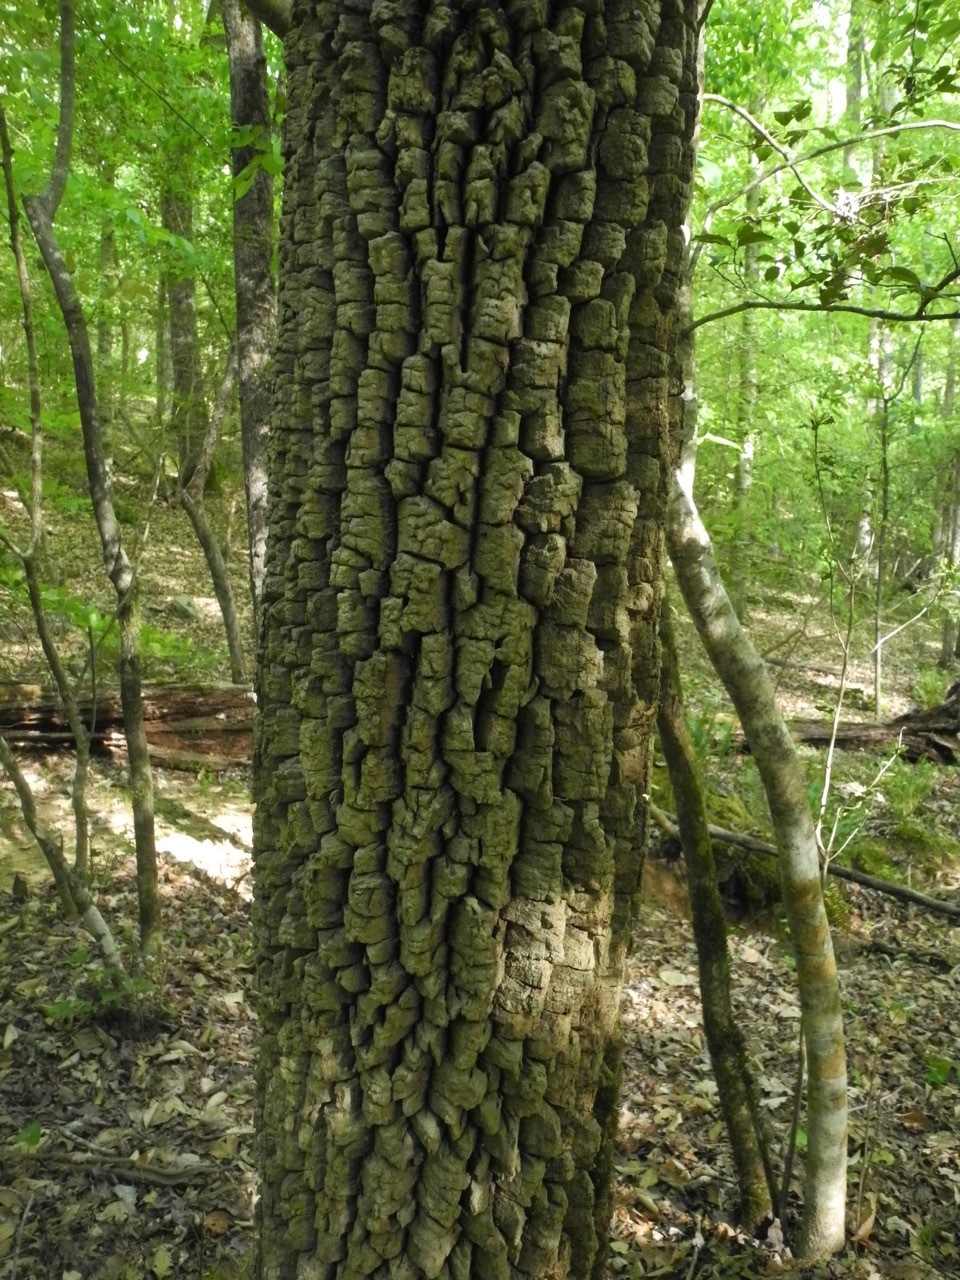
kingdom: Plantae
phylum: Tracheophyta
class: Magnoliopsida
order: Lamiales
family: Oleaceae
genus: Fraxinus
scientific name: Fraxinus pennsylvanica
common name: Green ash
